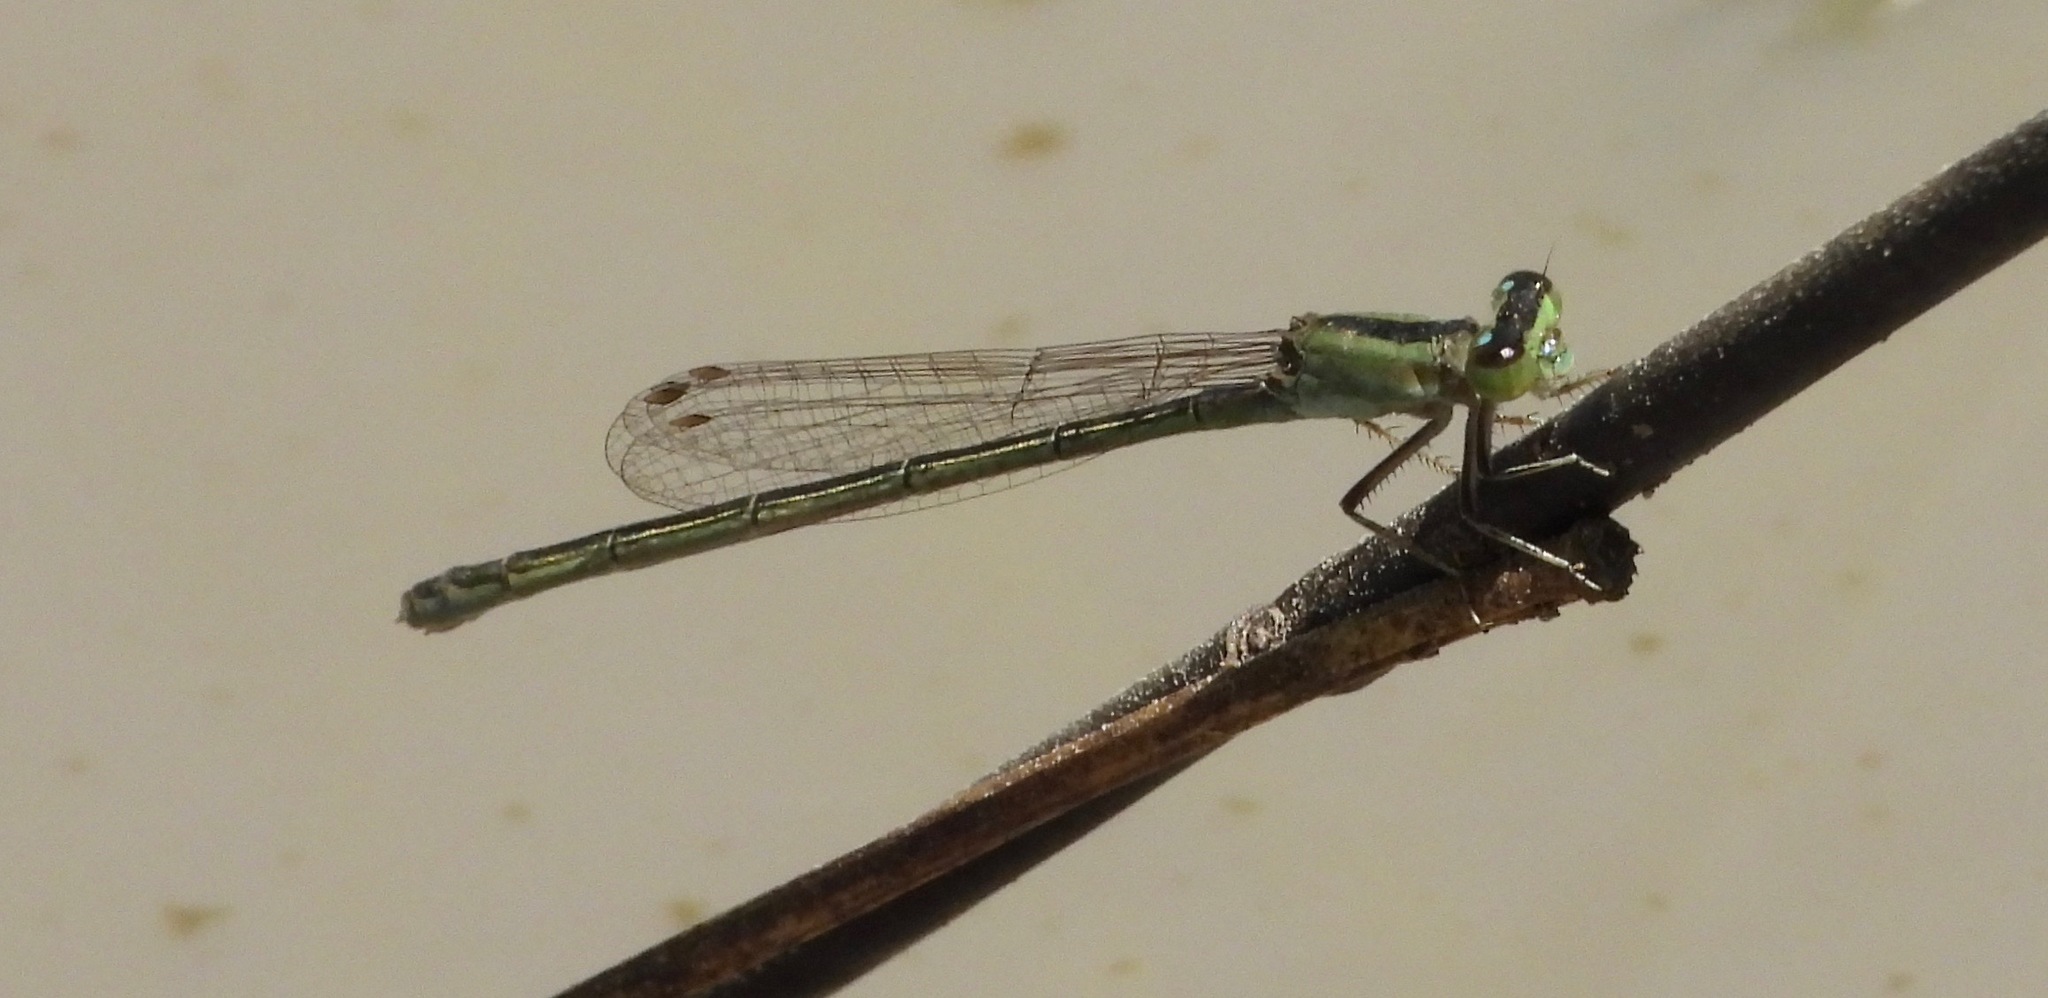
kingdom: Animalia
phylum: Arthropoda
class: Insecta
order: Odonata
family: Coenagrionidae
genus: Ischnura
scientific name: Ischnura fluviatilis
